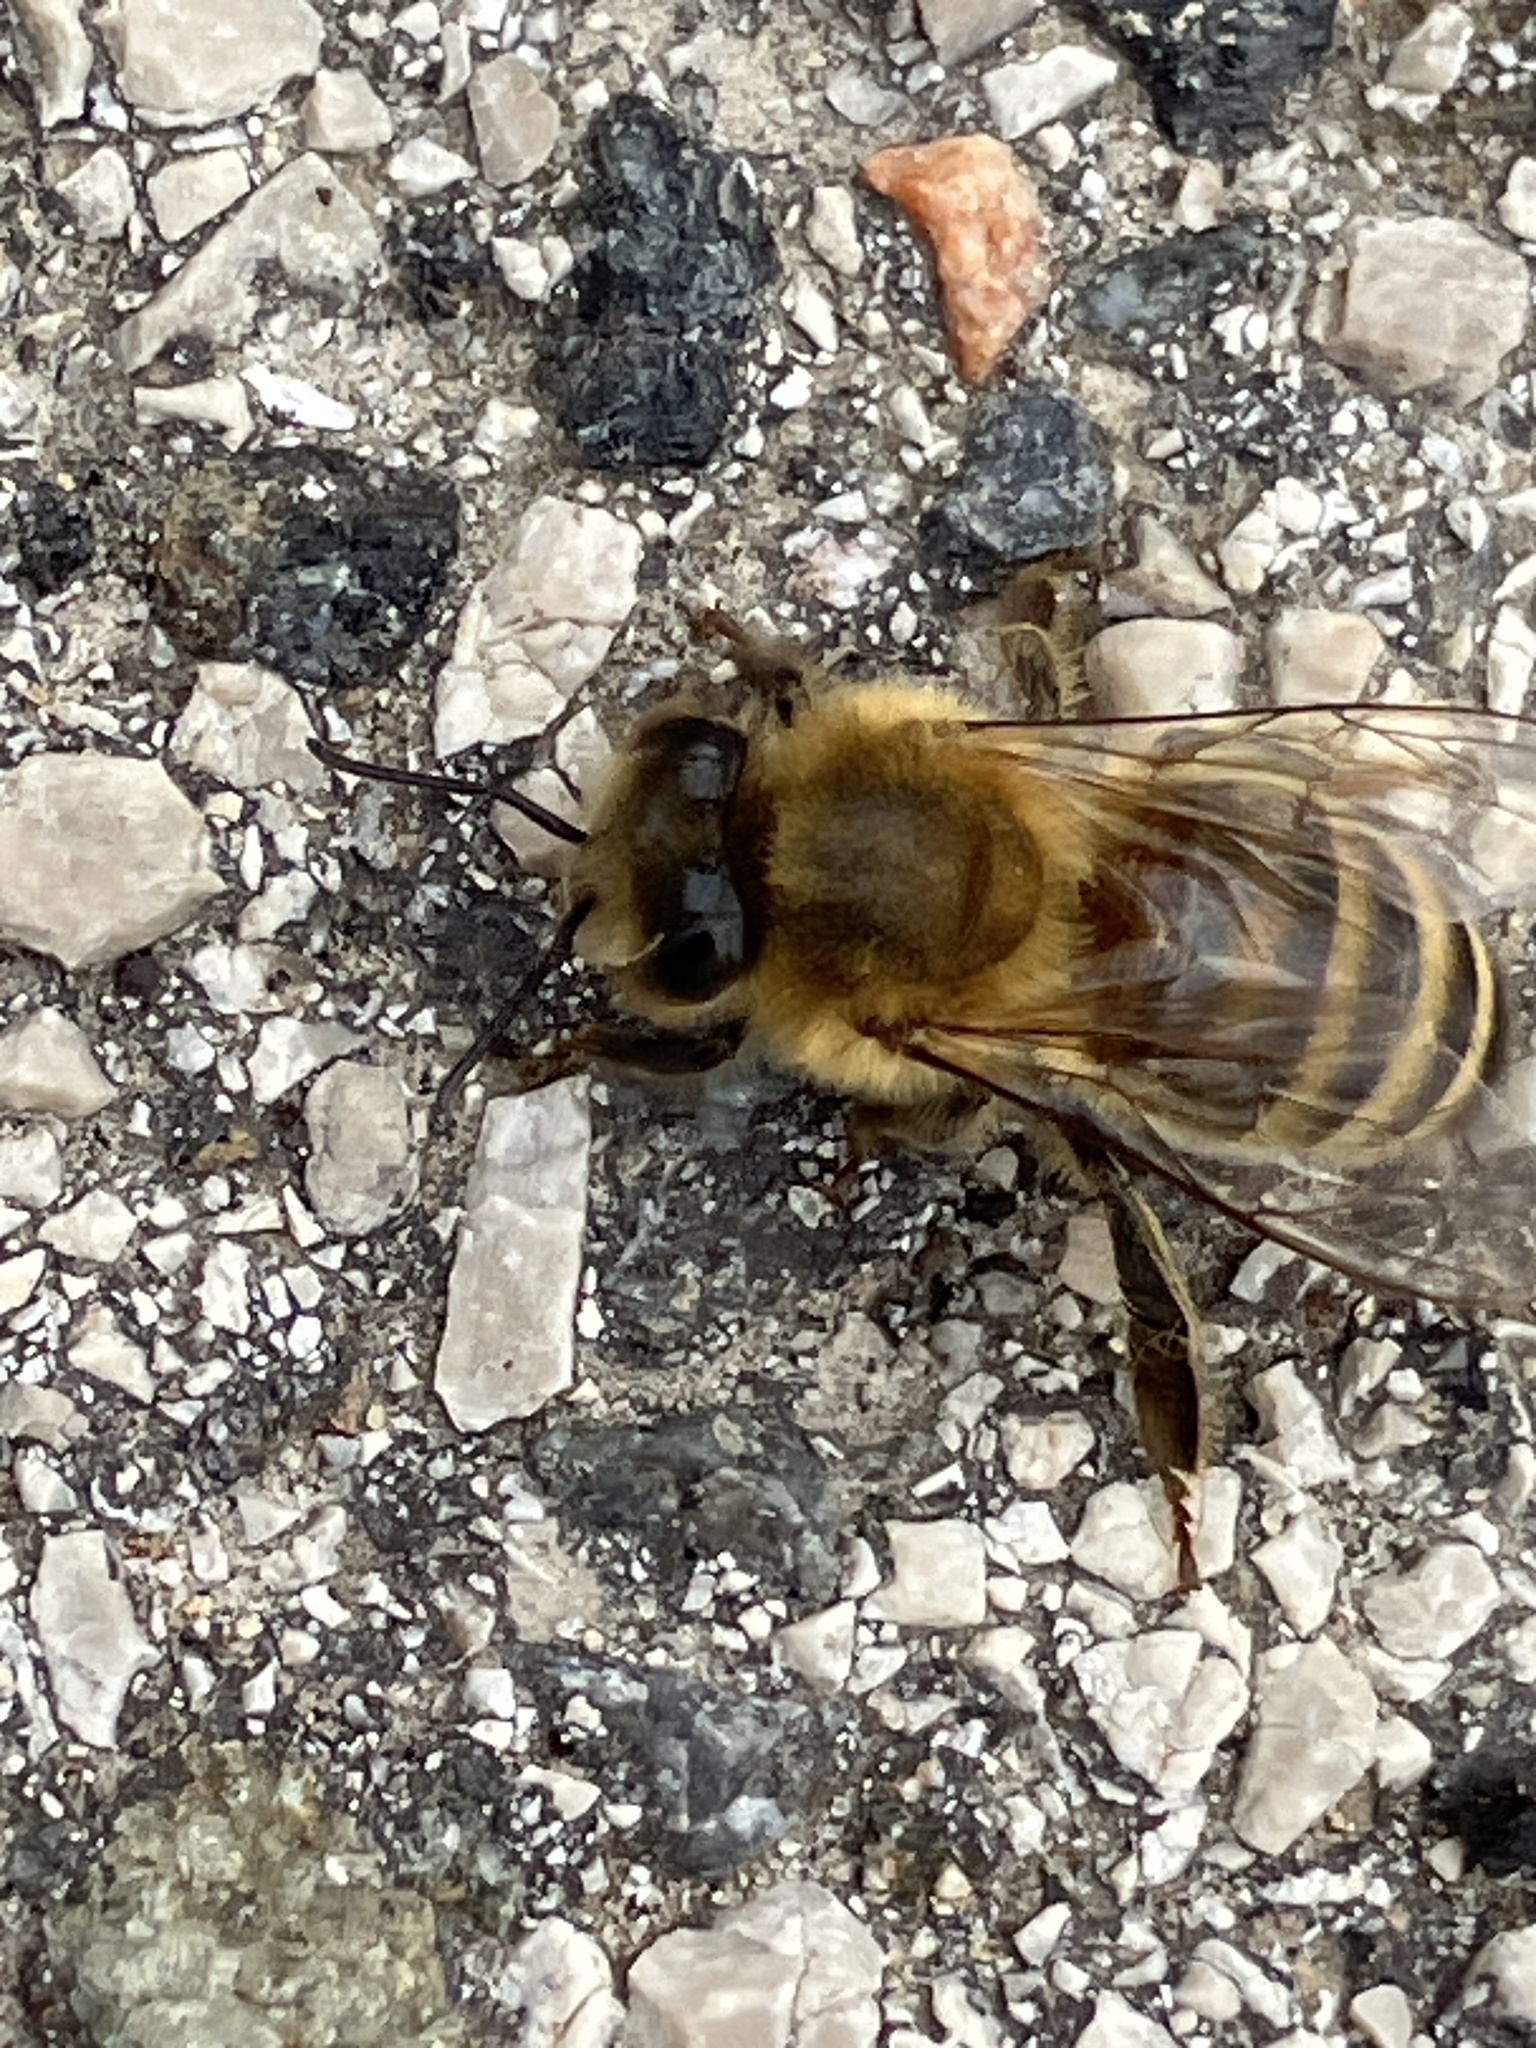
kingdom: Animalia
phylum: Arthropoda
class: Insecta
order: Hymenoptera
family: Apidae
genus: Apis
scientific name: Apis mellifera
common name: Honey bee
